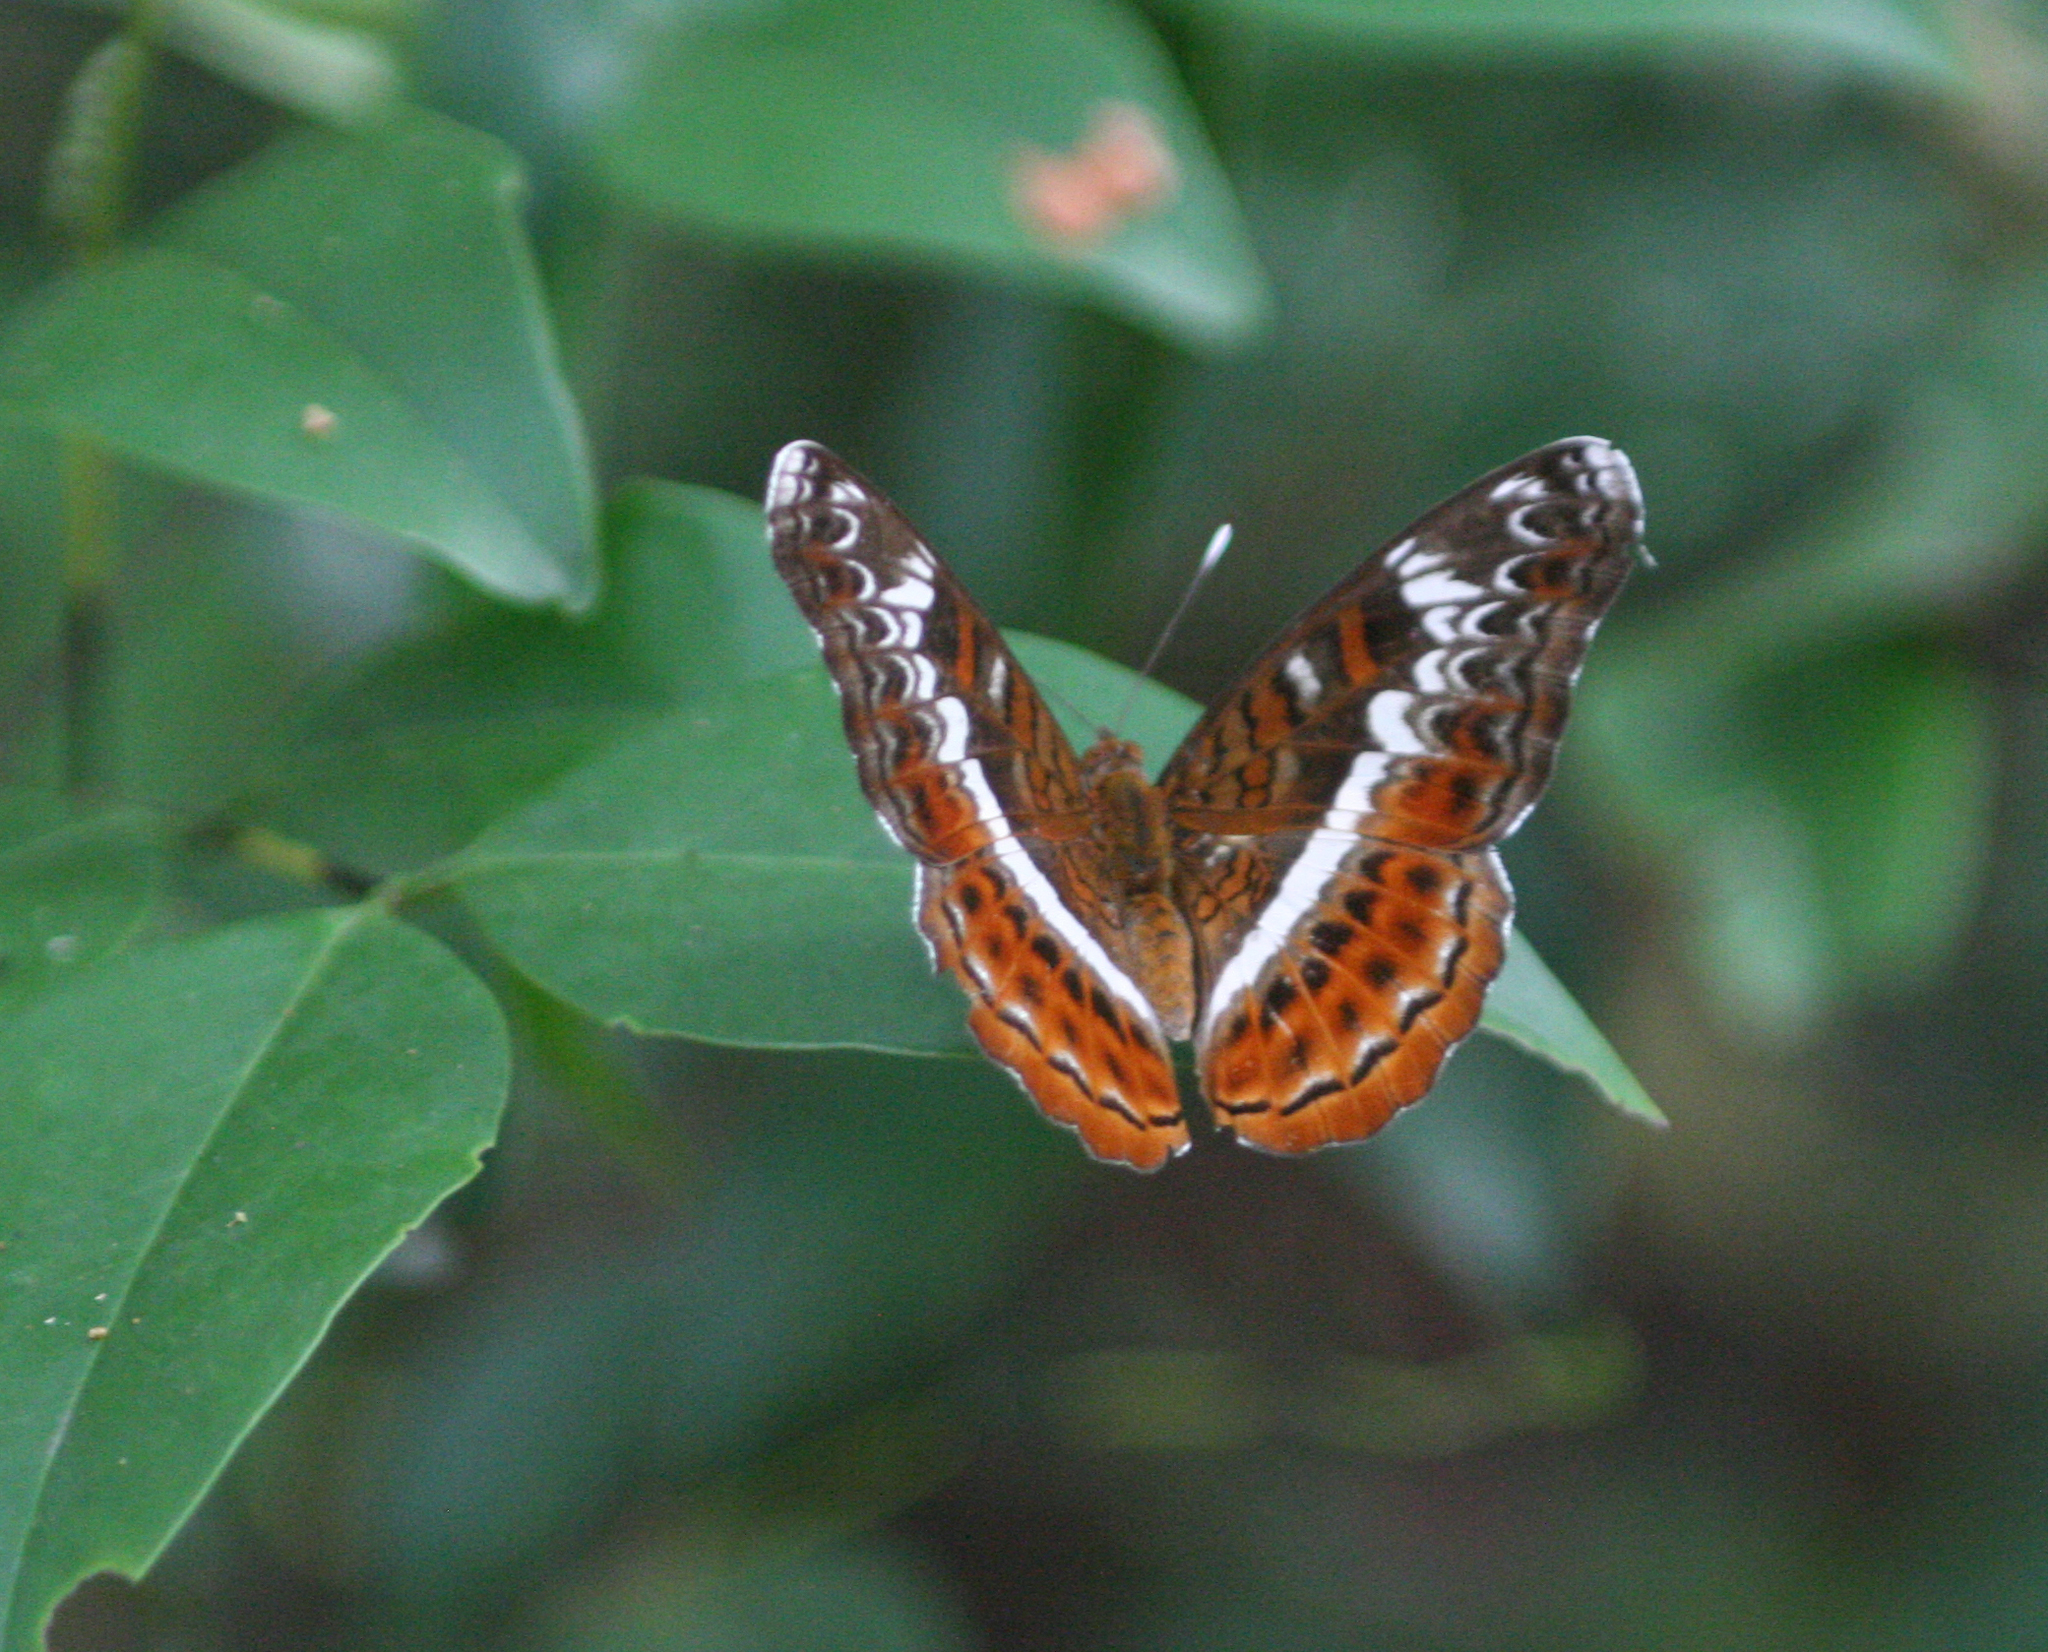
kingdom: Animalia
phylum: Arthropoda
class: Insecta
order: Lepidoptera
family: Nymphalidae
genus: Lebadea
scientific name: Lebadea martha
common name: Knight
